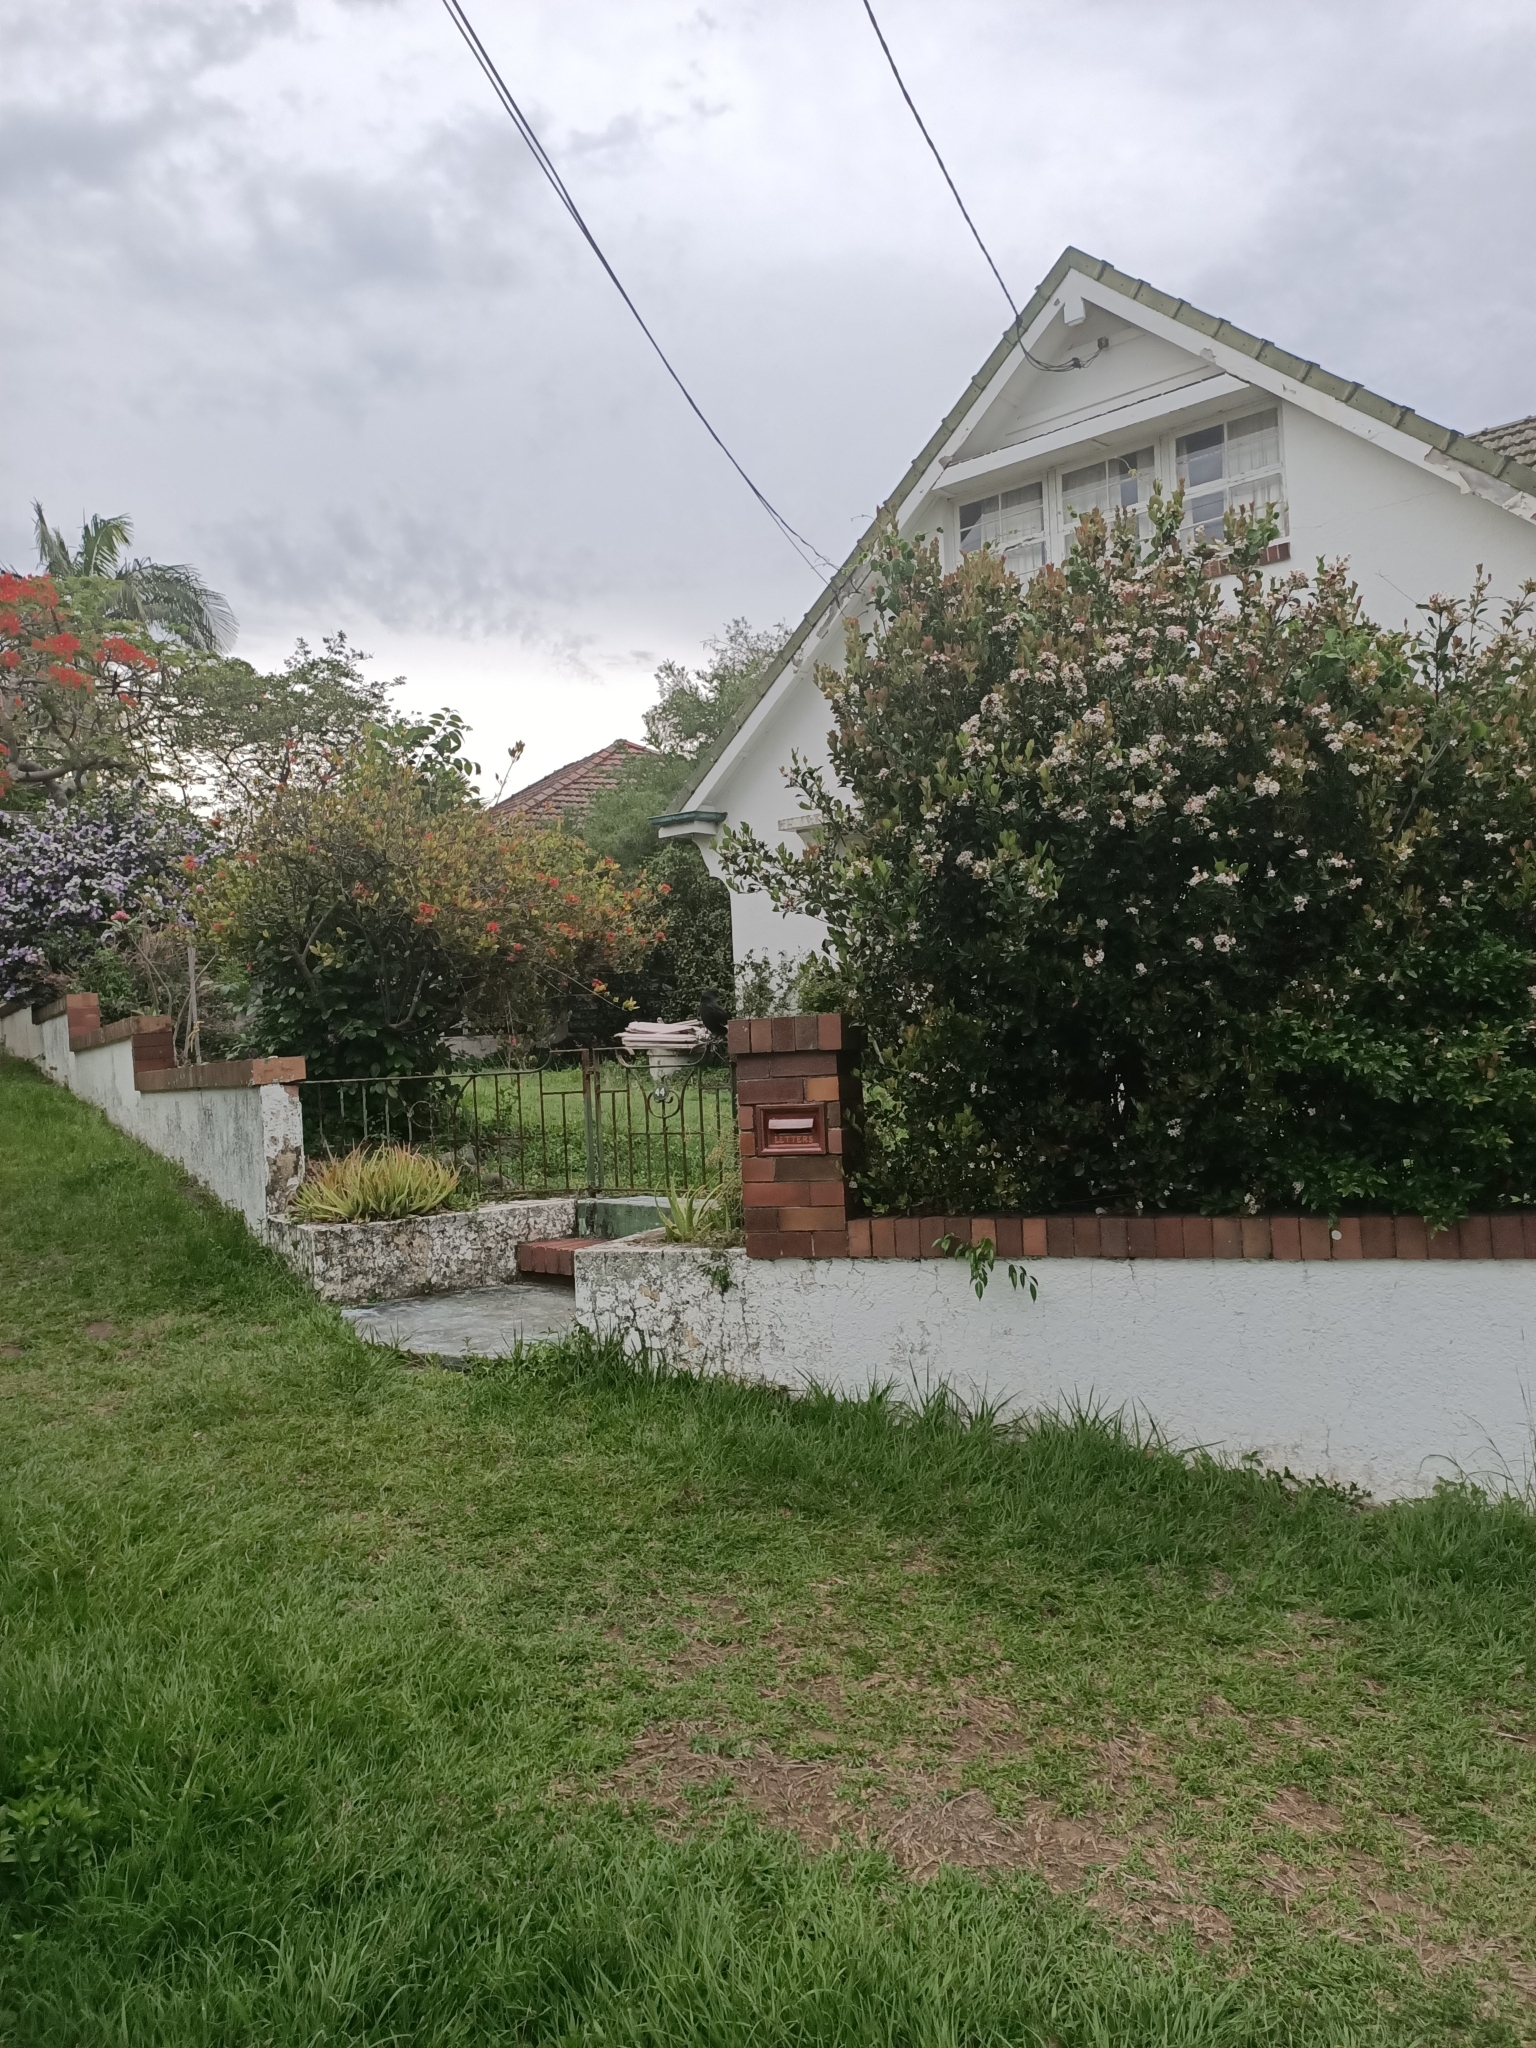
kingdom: Animalia
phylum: Chordata
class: Aves
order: Passeriformes
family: Corvidae
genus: Corvus
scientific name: Corvus orru
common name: Torresian crow
